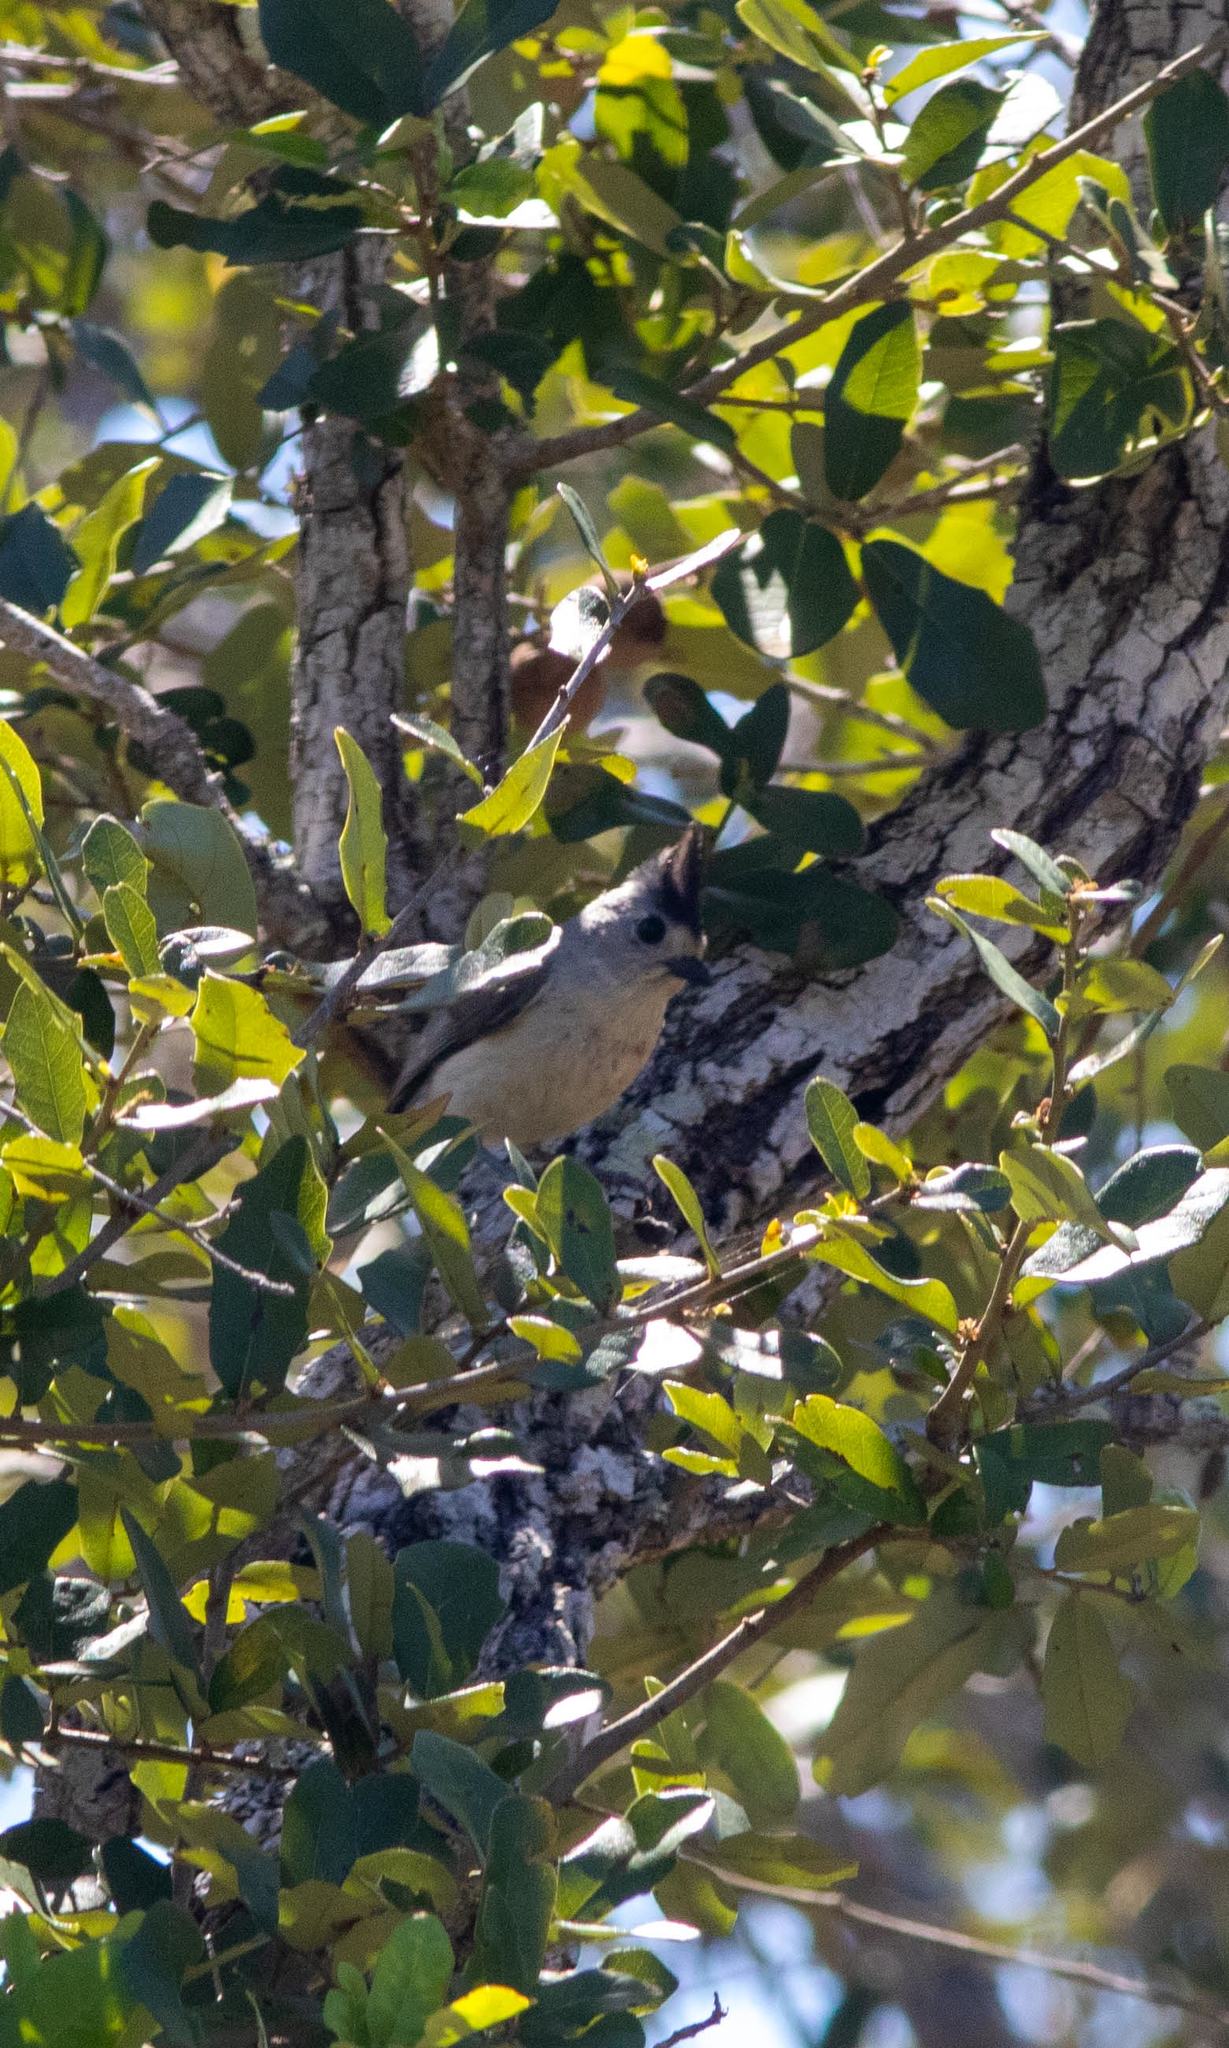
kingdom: Animalia
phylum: Chordata
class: Aves
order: Passeriformes
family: Paridae
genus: Baeolophus
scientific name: Baeolophus atricristatus
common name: Black-crested titmouse
